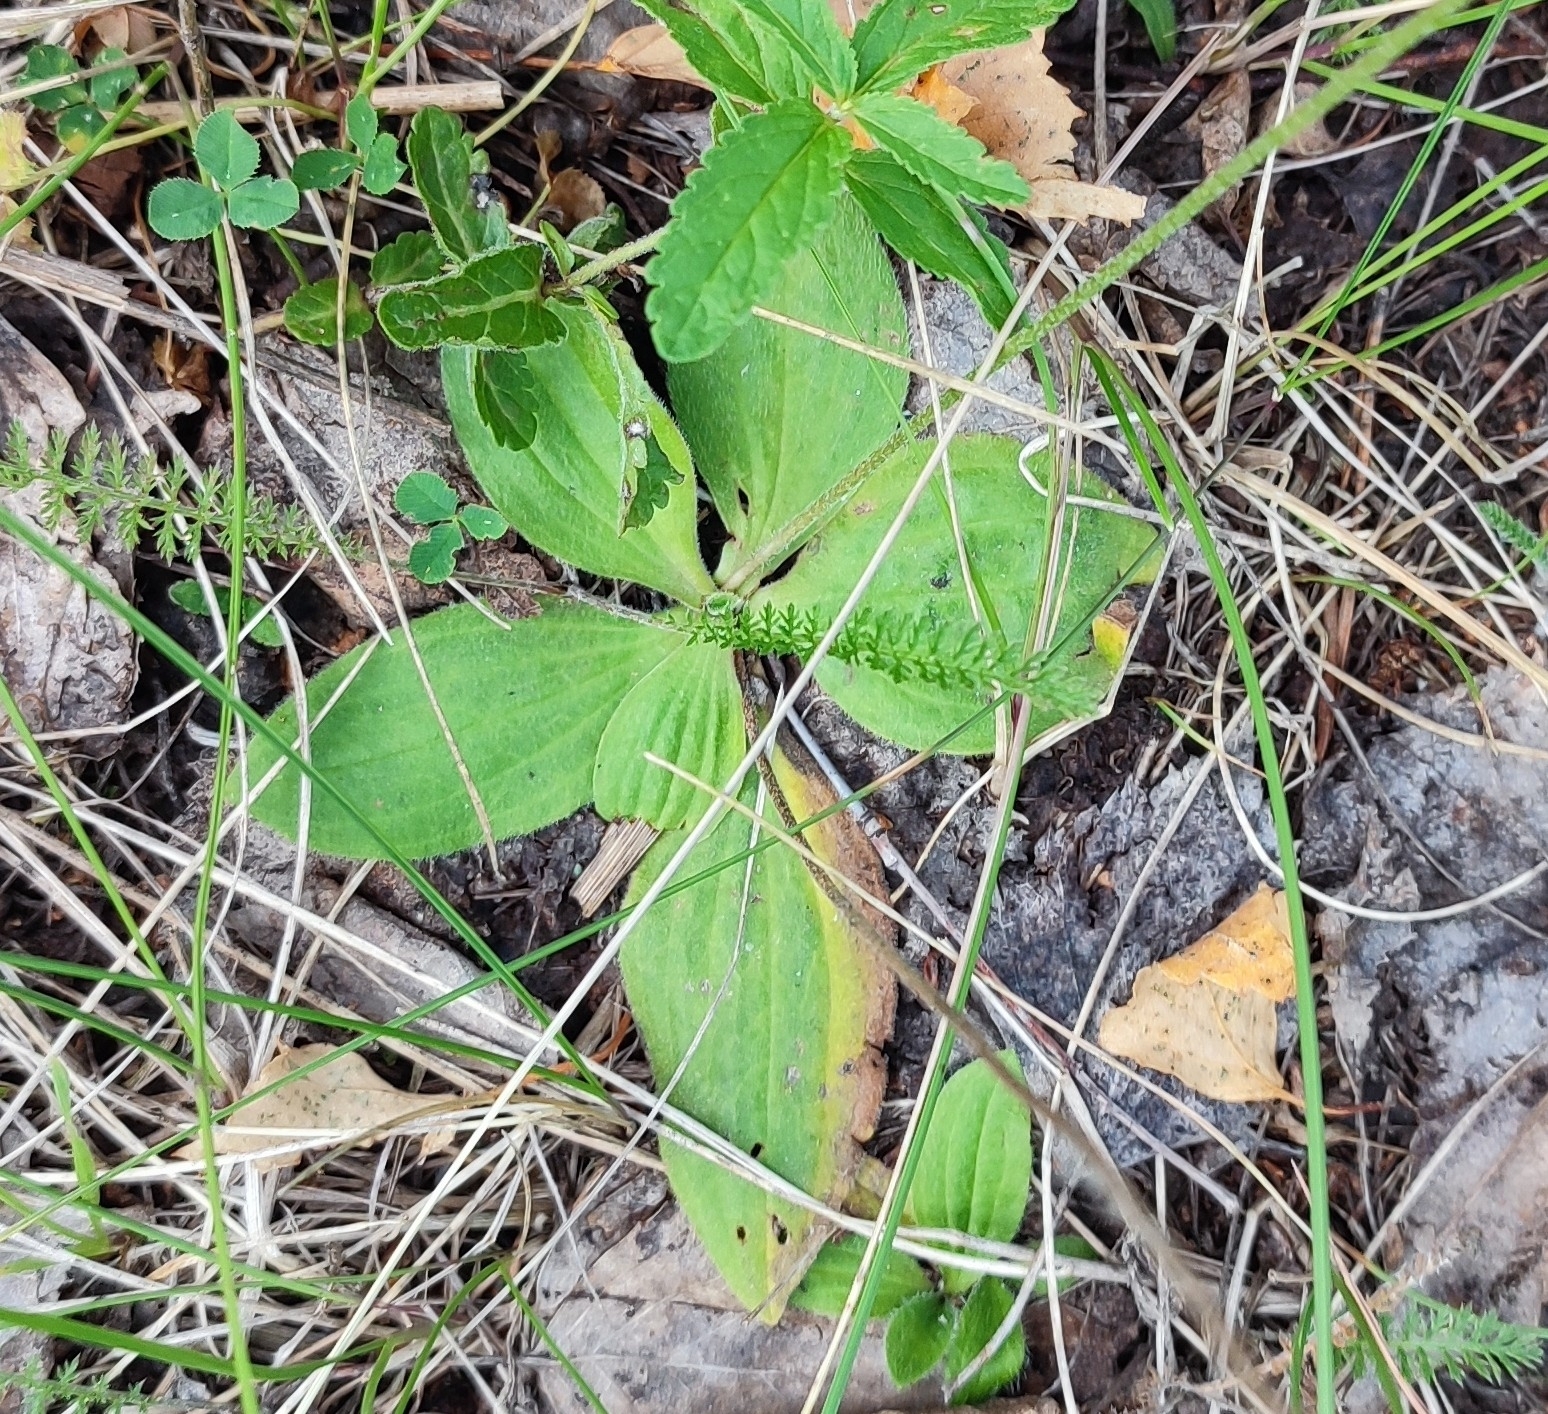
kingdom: Plantae
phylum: Tracheophyta
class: Magnoliopsida
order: Lamiales
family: Plantaginaceae
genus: Plantago
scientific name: Plantago media
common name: Hoary plantain
